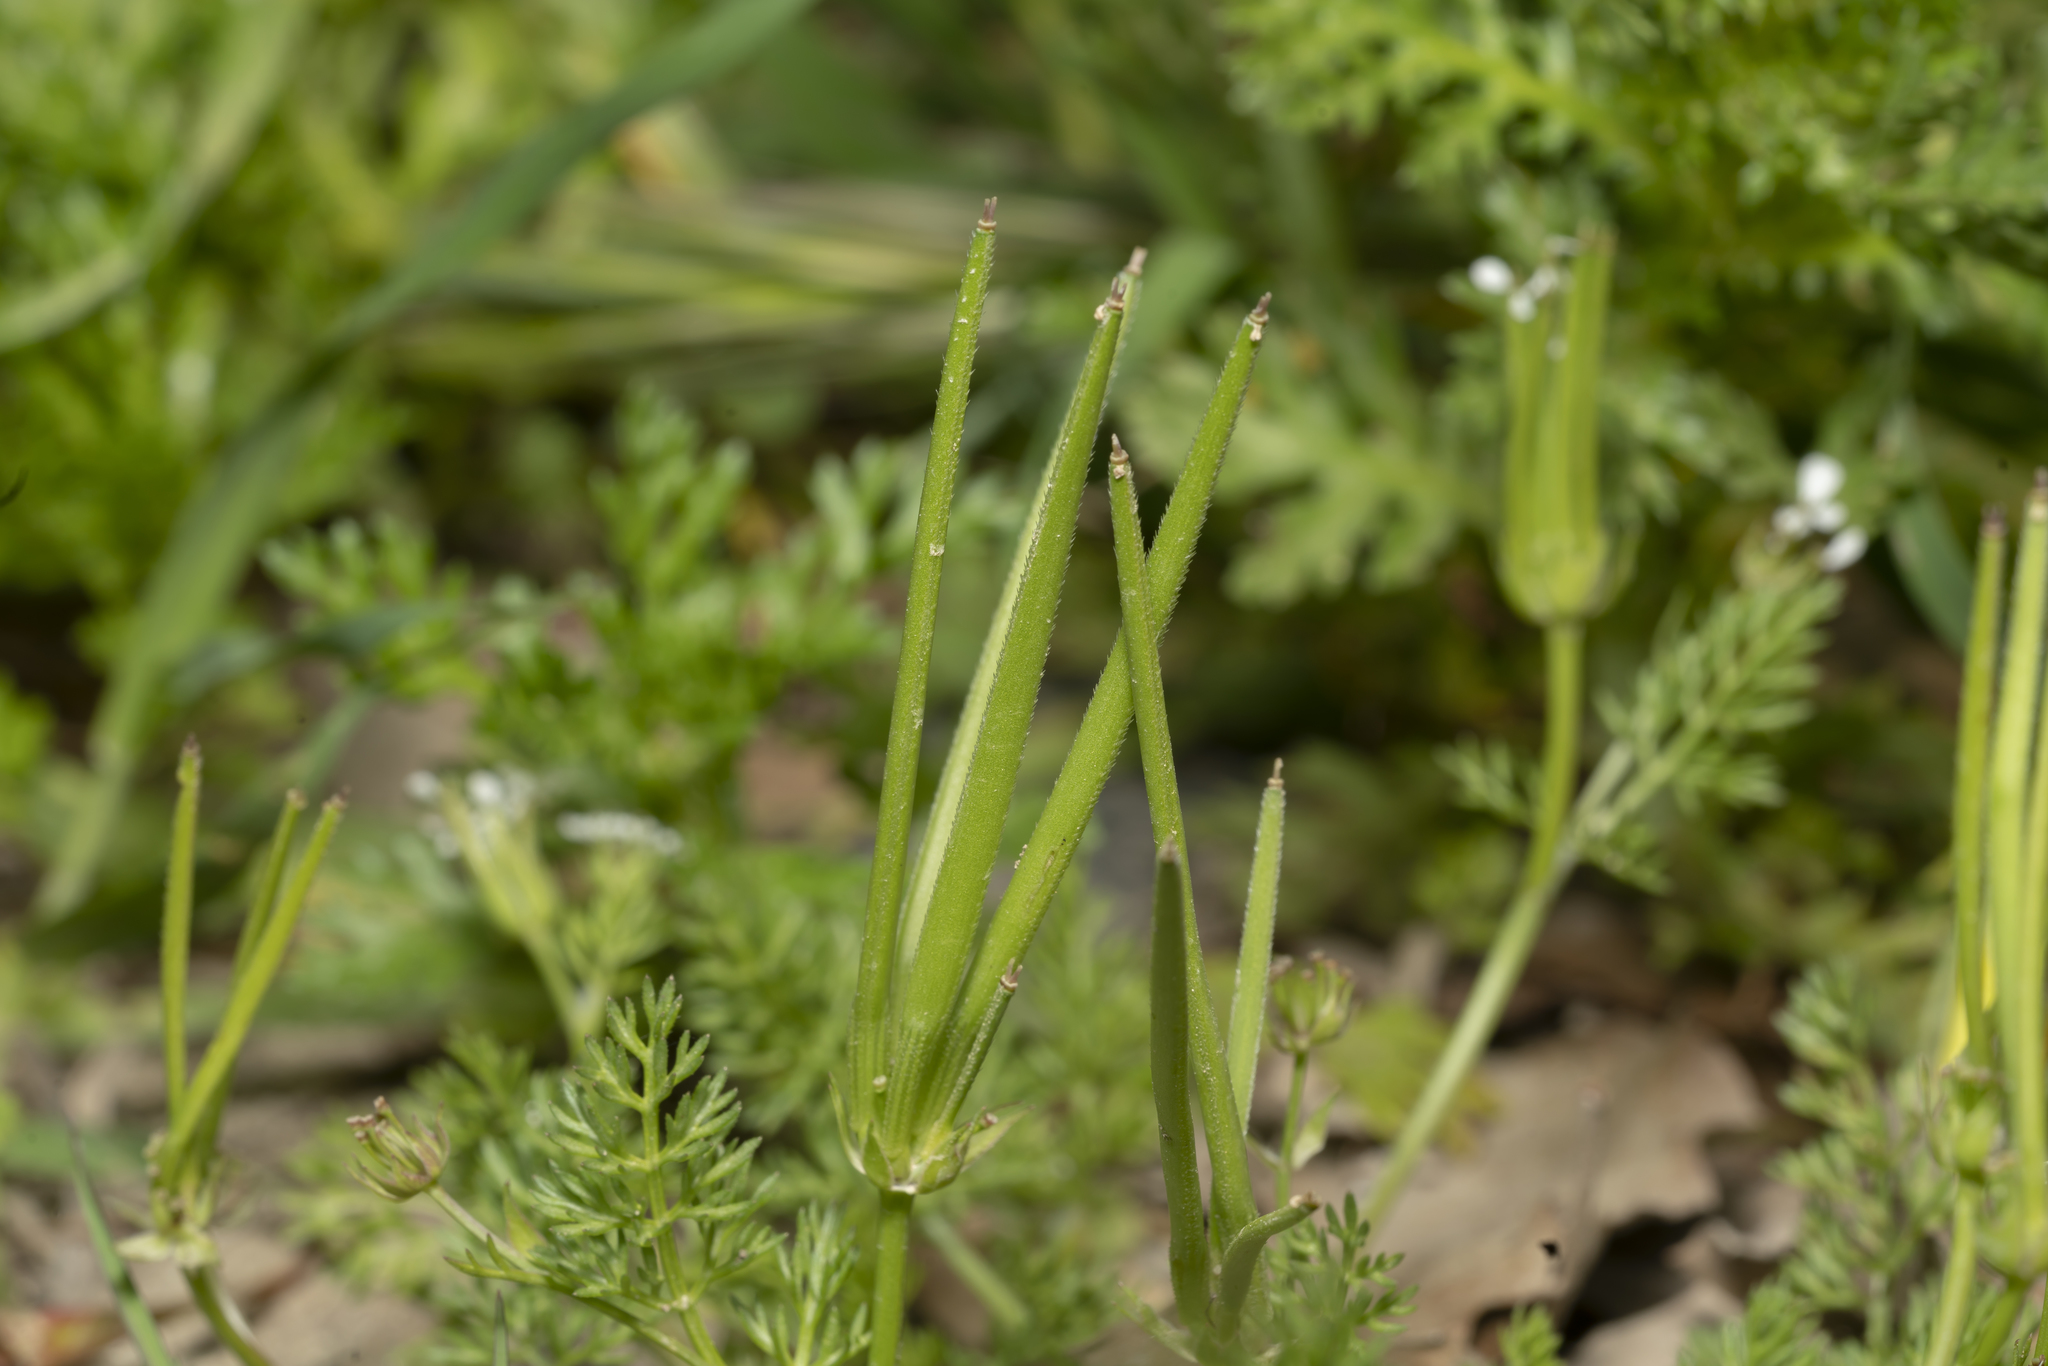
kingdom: Plantae
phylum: Tracheophyta
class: Magnoliopsida
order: Apiales
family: Apiaceae
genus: Scandix
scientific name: Scandix pecten-veneris
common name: Shepherd's-needle
